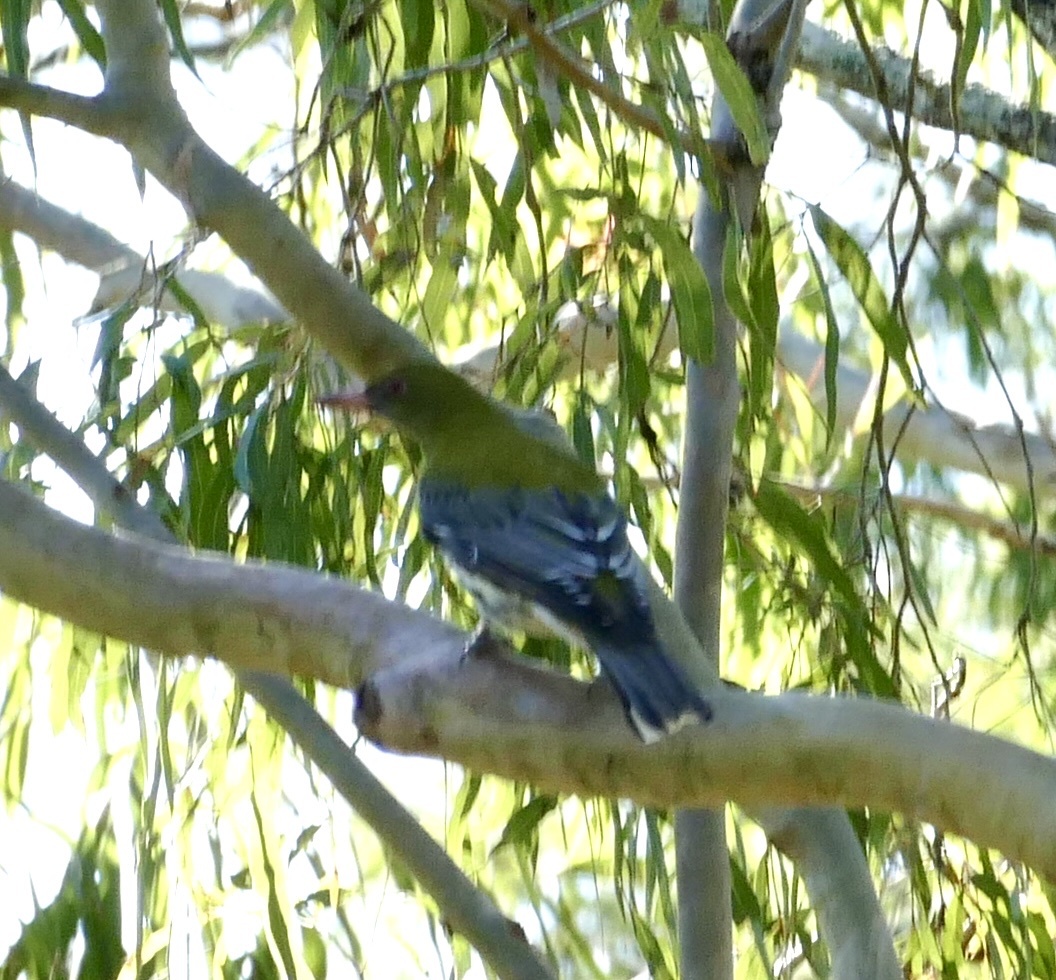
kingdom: Animalia
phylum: Chordata
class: Aves
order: Passeriformes
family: Oriolidae
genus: Oriolus
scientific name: Oriolus sagittatus
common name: Olive-backed oriole
